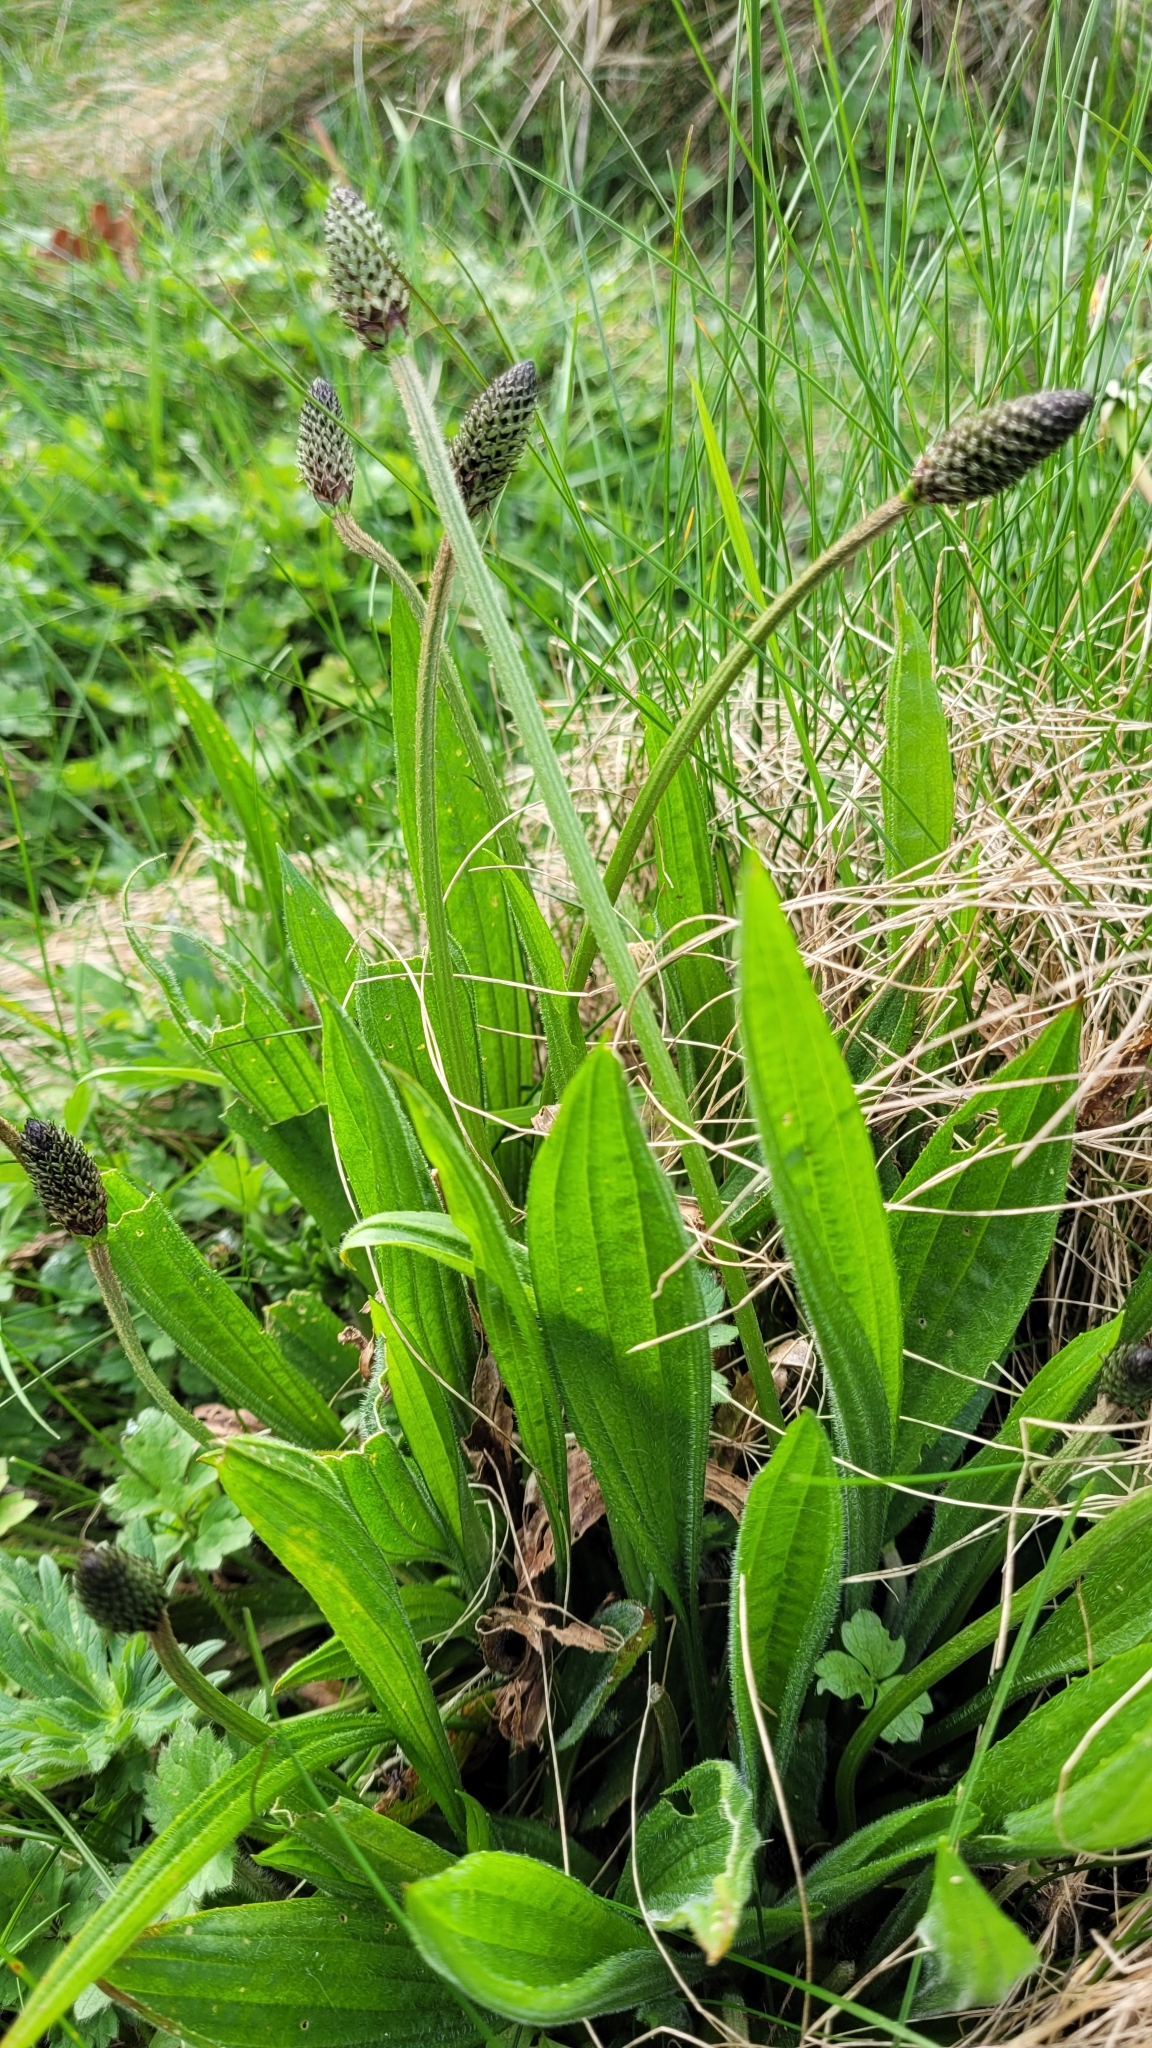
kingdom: Plantae
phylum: Tracheophyta
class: Magnoliopsida
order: Lamiales
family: Plantaginaceae
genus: Plantago
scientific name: Plantago lanceolata
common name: Ribwort plantain
